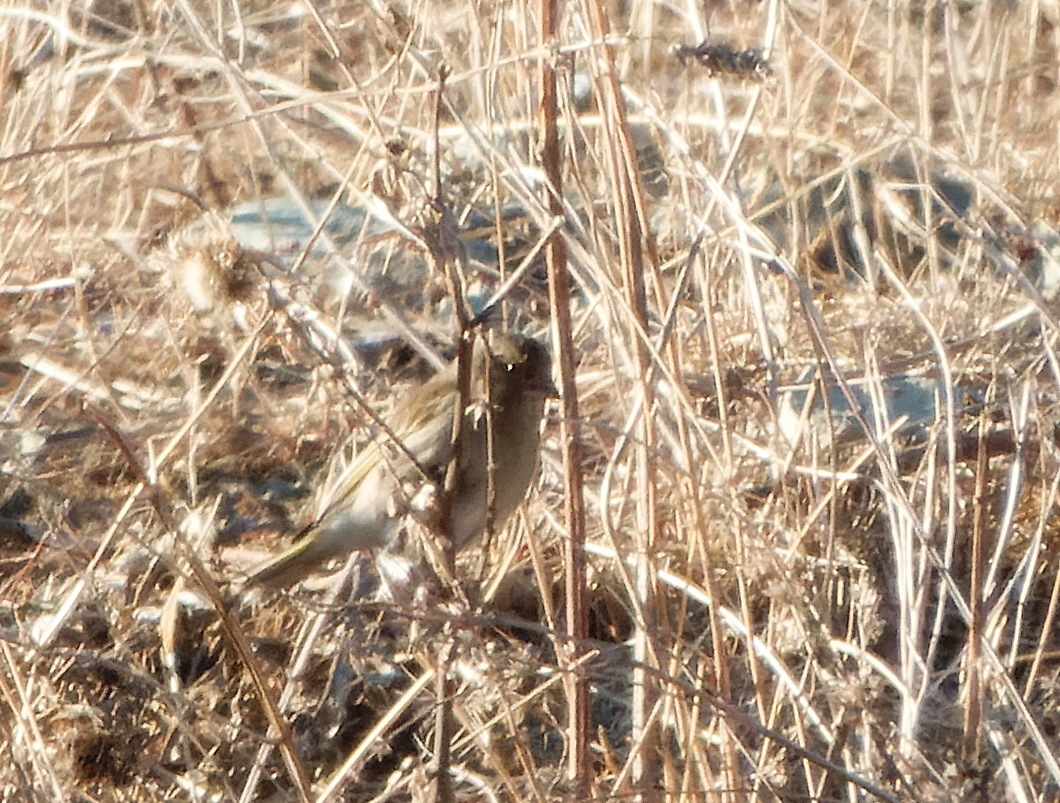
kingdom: Plantae
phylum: Tracheophyta
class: Liliopsida
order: Poales
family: Poaceae
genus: Chloris
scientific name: Chloris chloris
